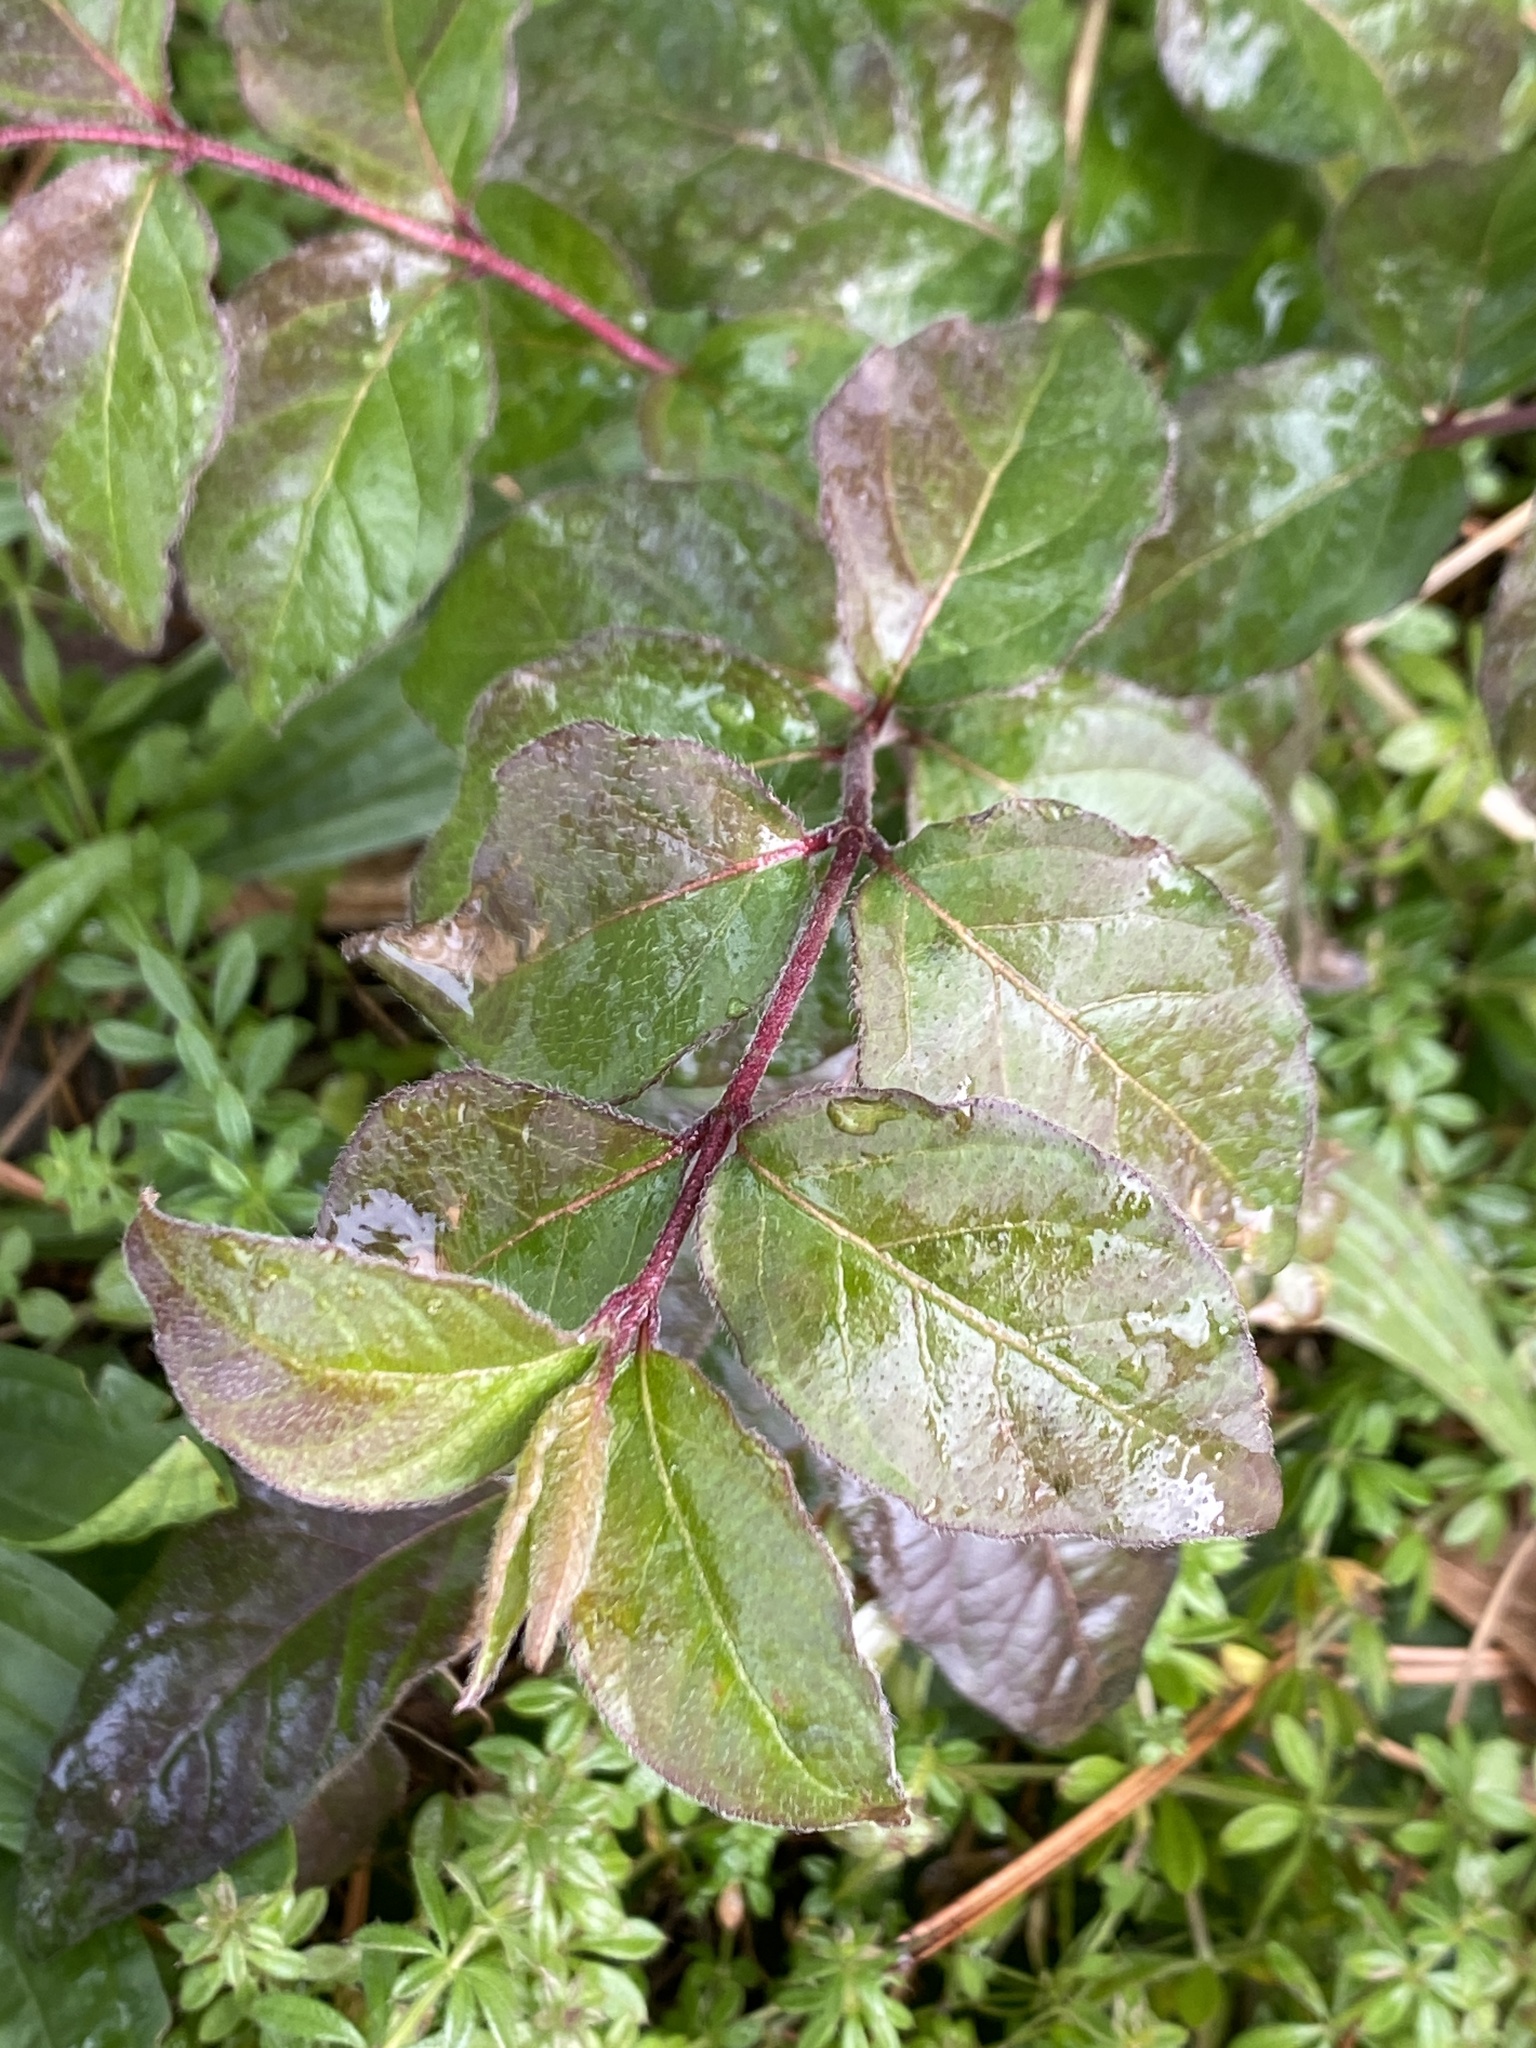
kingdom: Plantae
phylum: Tracheophyta
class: Magnoliopsida
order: Dipsacales
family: Caprifoliaceae
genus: Lonicera
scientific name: Lonicera maackii
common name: Amur honeysuckle
